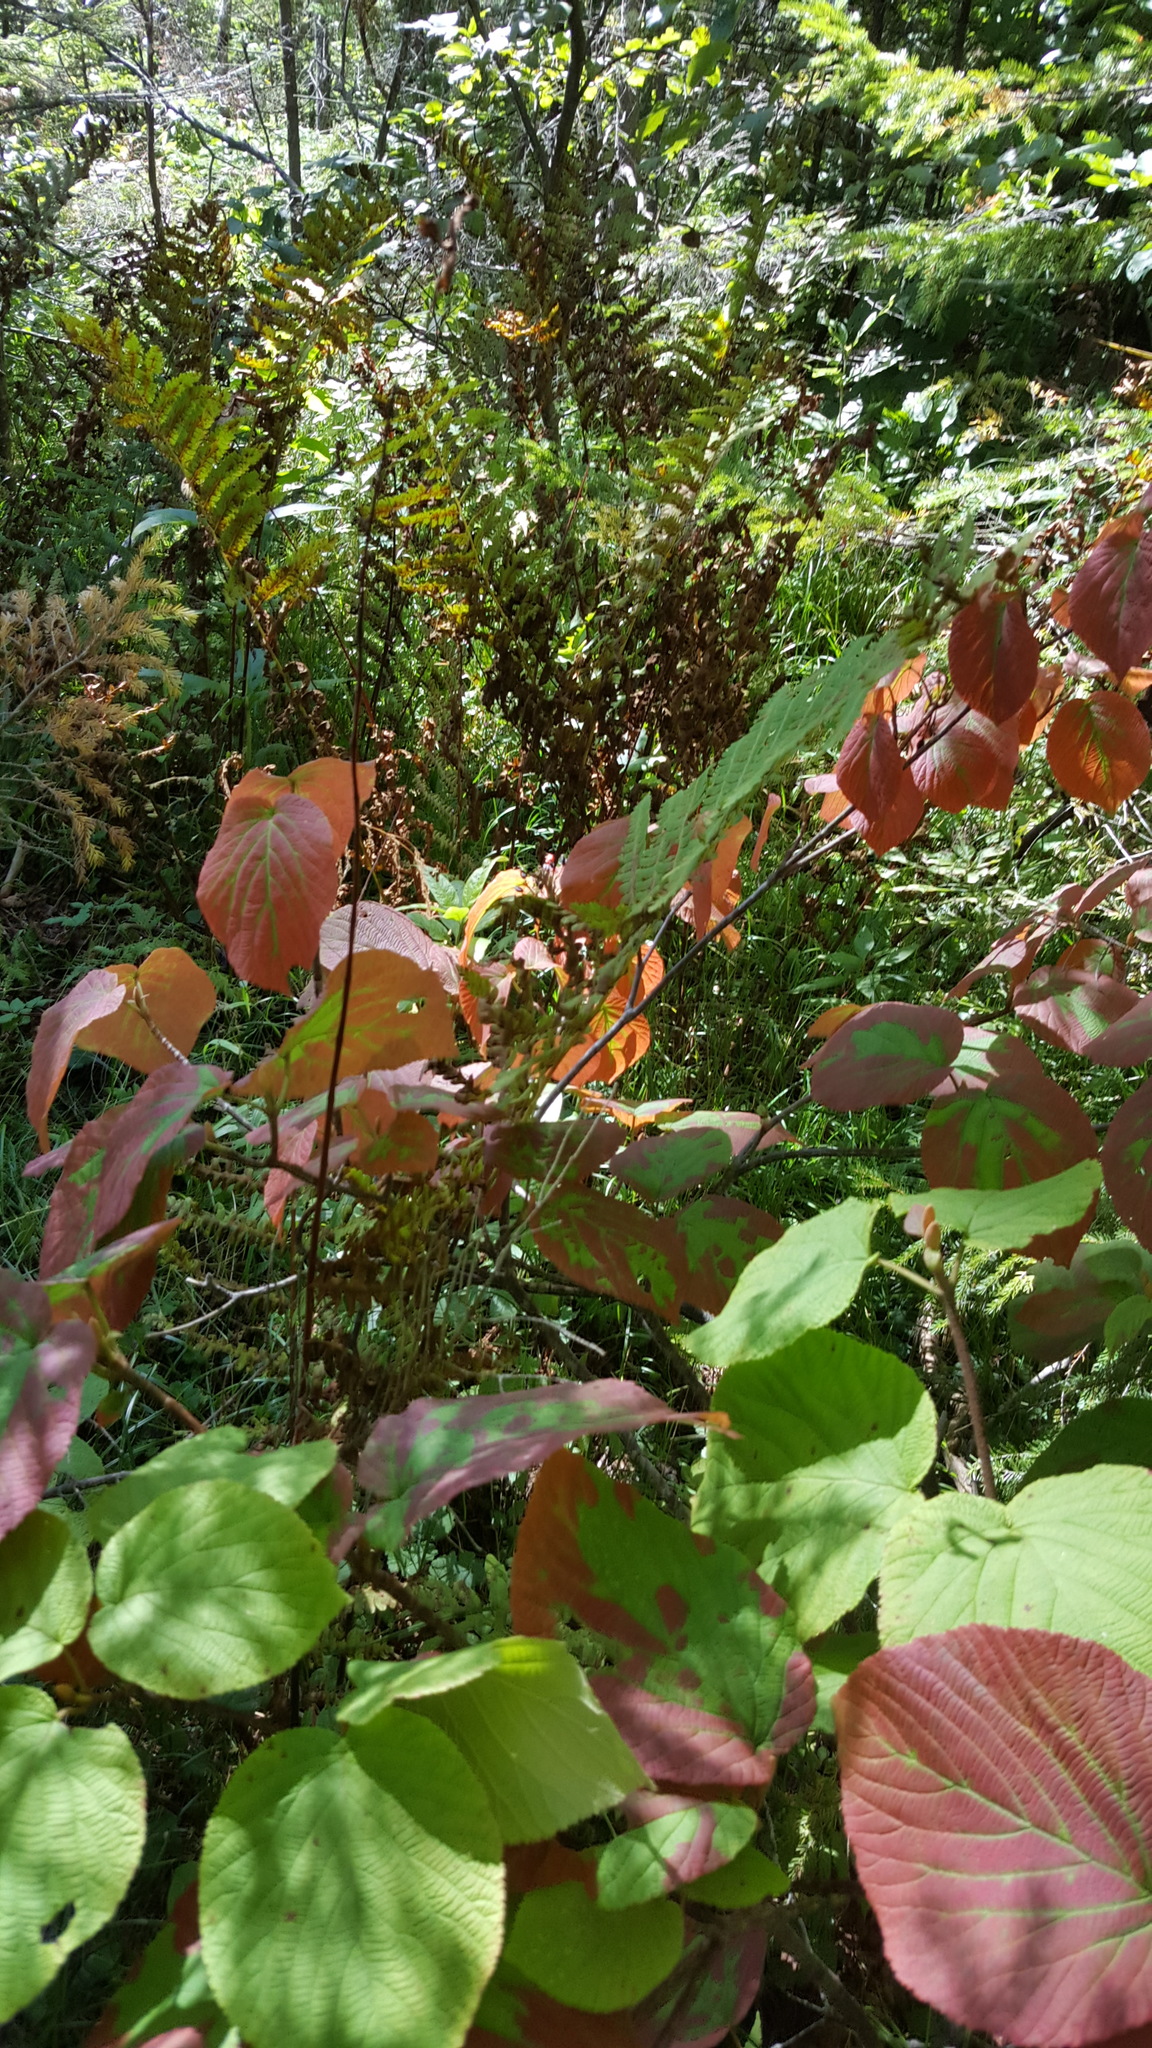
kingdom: Plantae
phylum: Tracheophyta
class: Magnoliopsida
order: Dipsacales
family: Viburnaceae
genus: Viburnum
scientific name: Viburnum lantanoides
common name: Hobblebush
